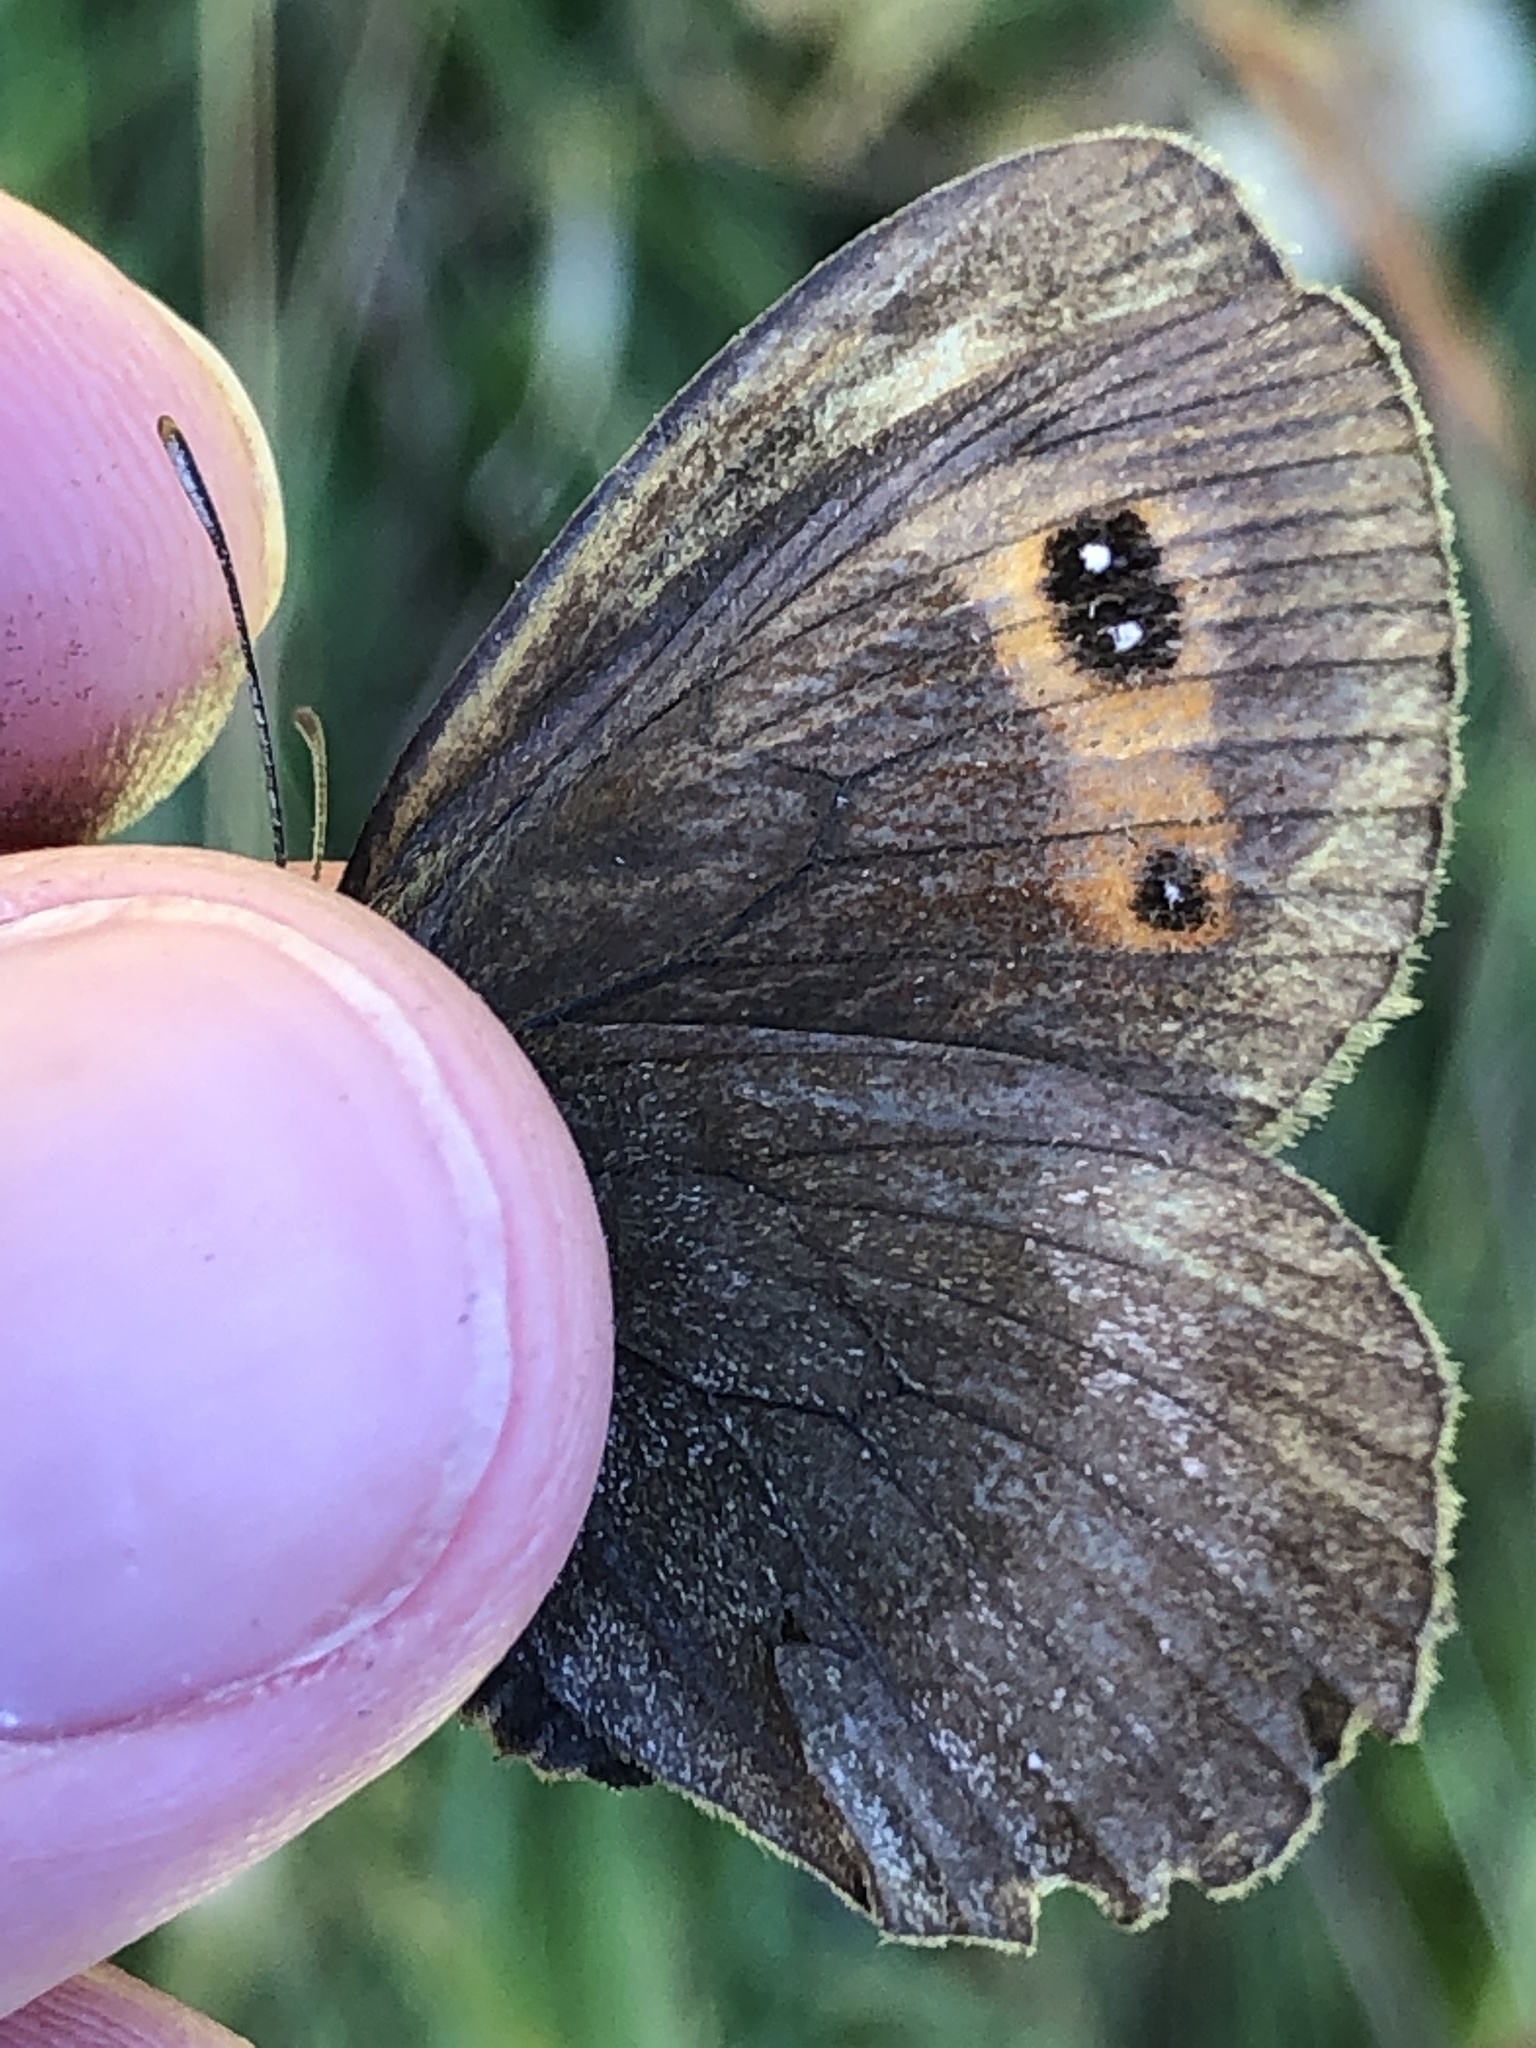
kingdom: Animalia
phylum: Arthropoda
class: Insecta
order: Lepidoptera
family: Nymphalidae
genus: Erebia
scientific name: Erebia aethiops
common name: Scotch argus
